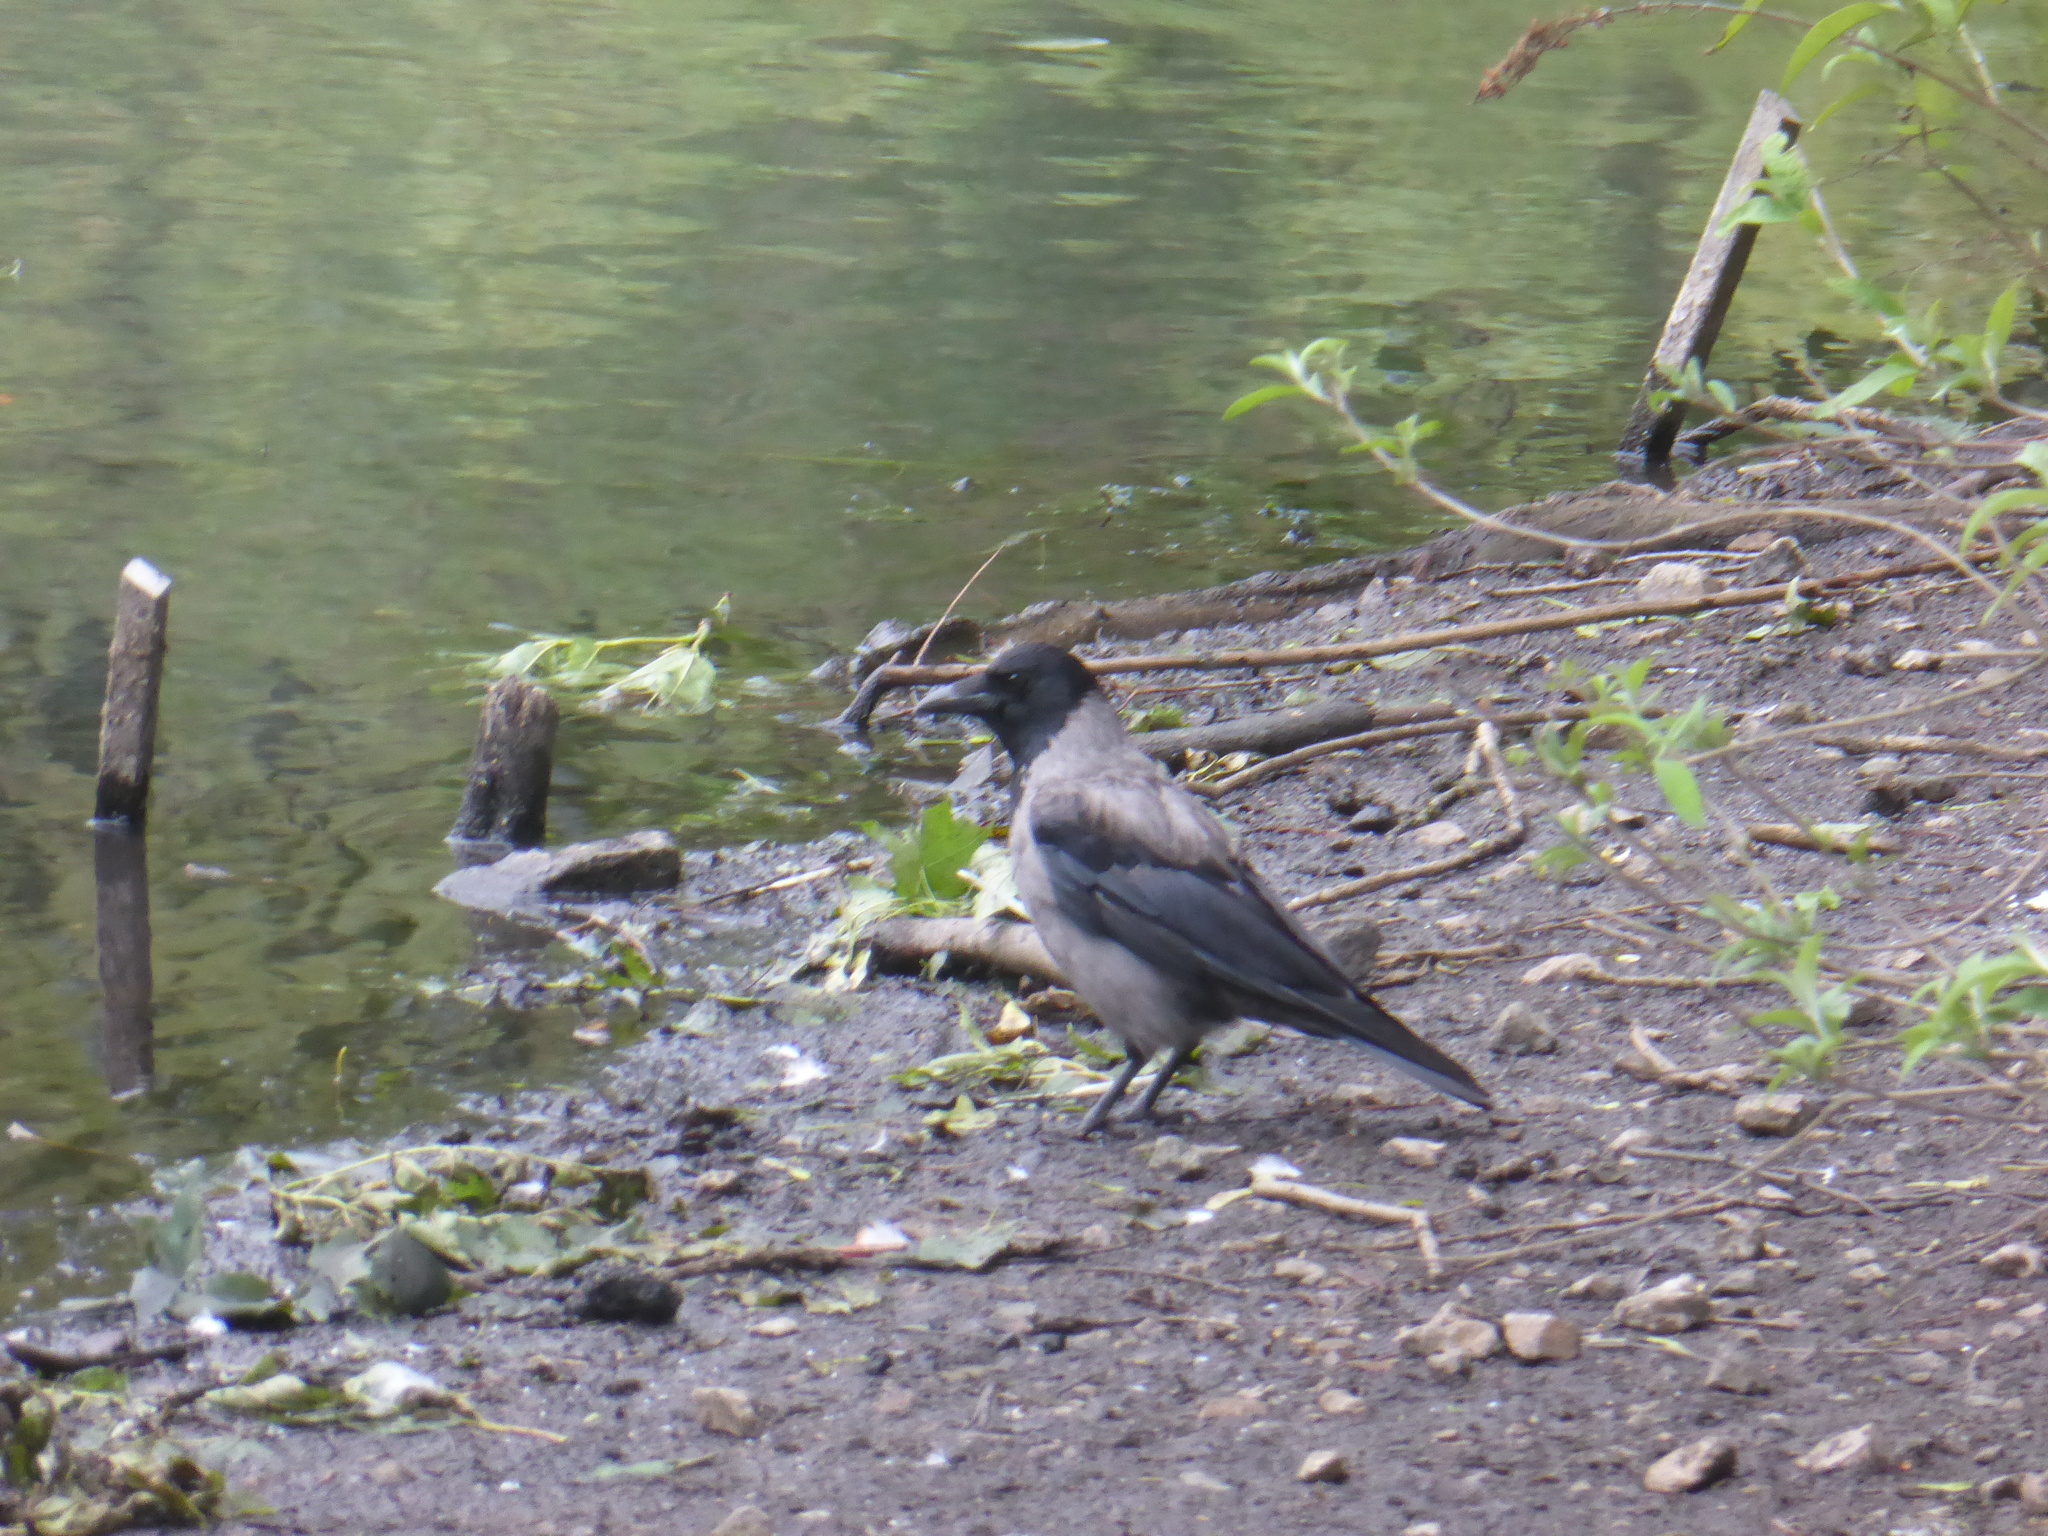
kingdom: Animalia
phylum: Chordata
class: Aves
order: Passeriformes
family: Corvidae
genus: Corvus
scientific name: Corvus cornix
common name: Hooded crow
